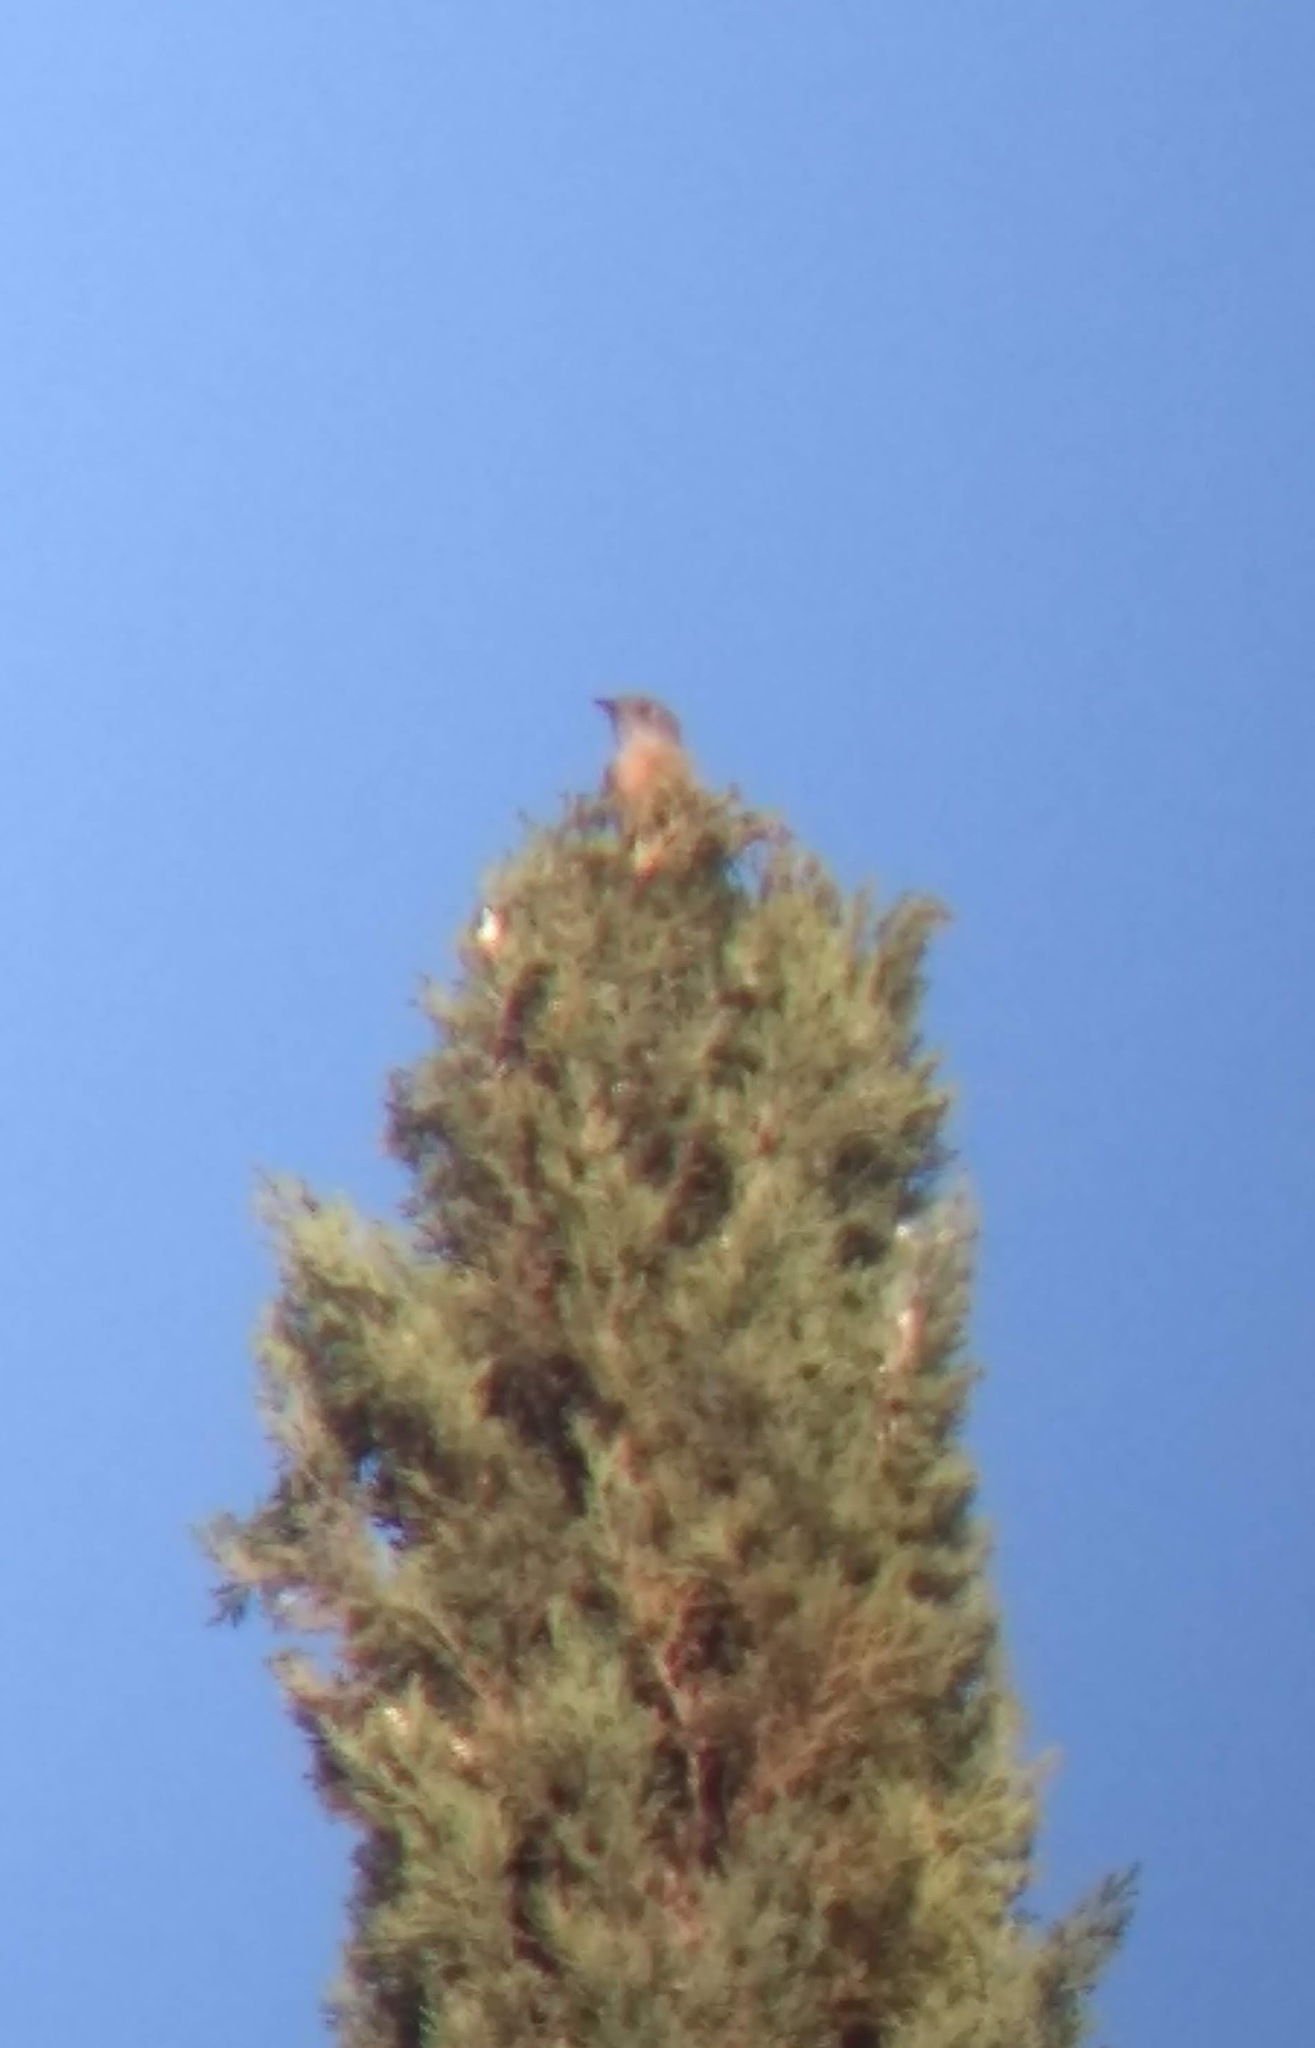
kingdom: Animalia
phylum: Chordata
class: Aves
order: Passeriformes
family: Turdidae
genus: Sialia
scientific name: Sialia mexicana
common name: Western bluebird
